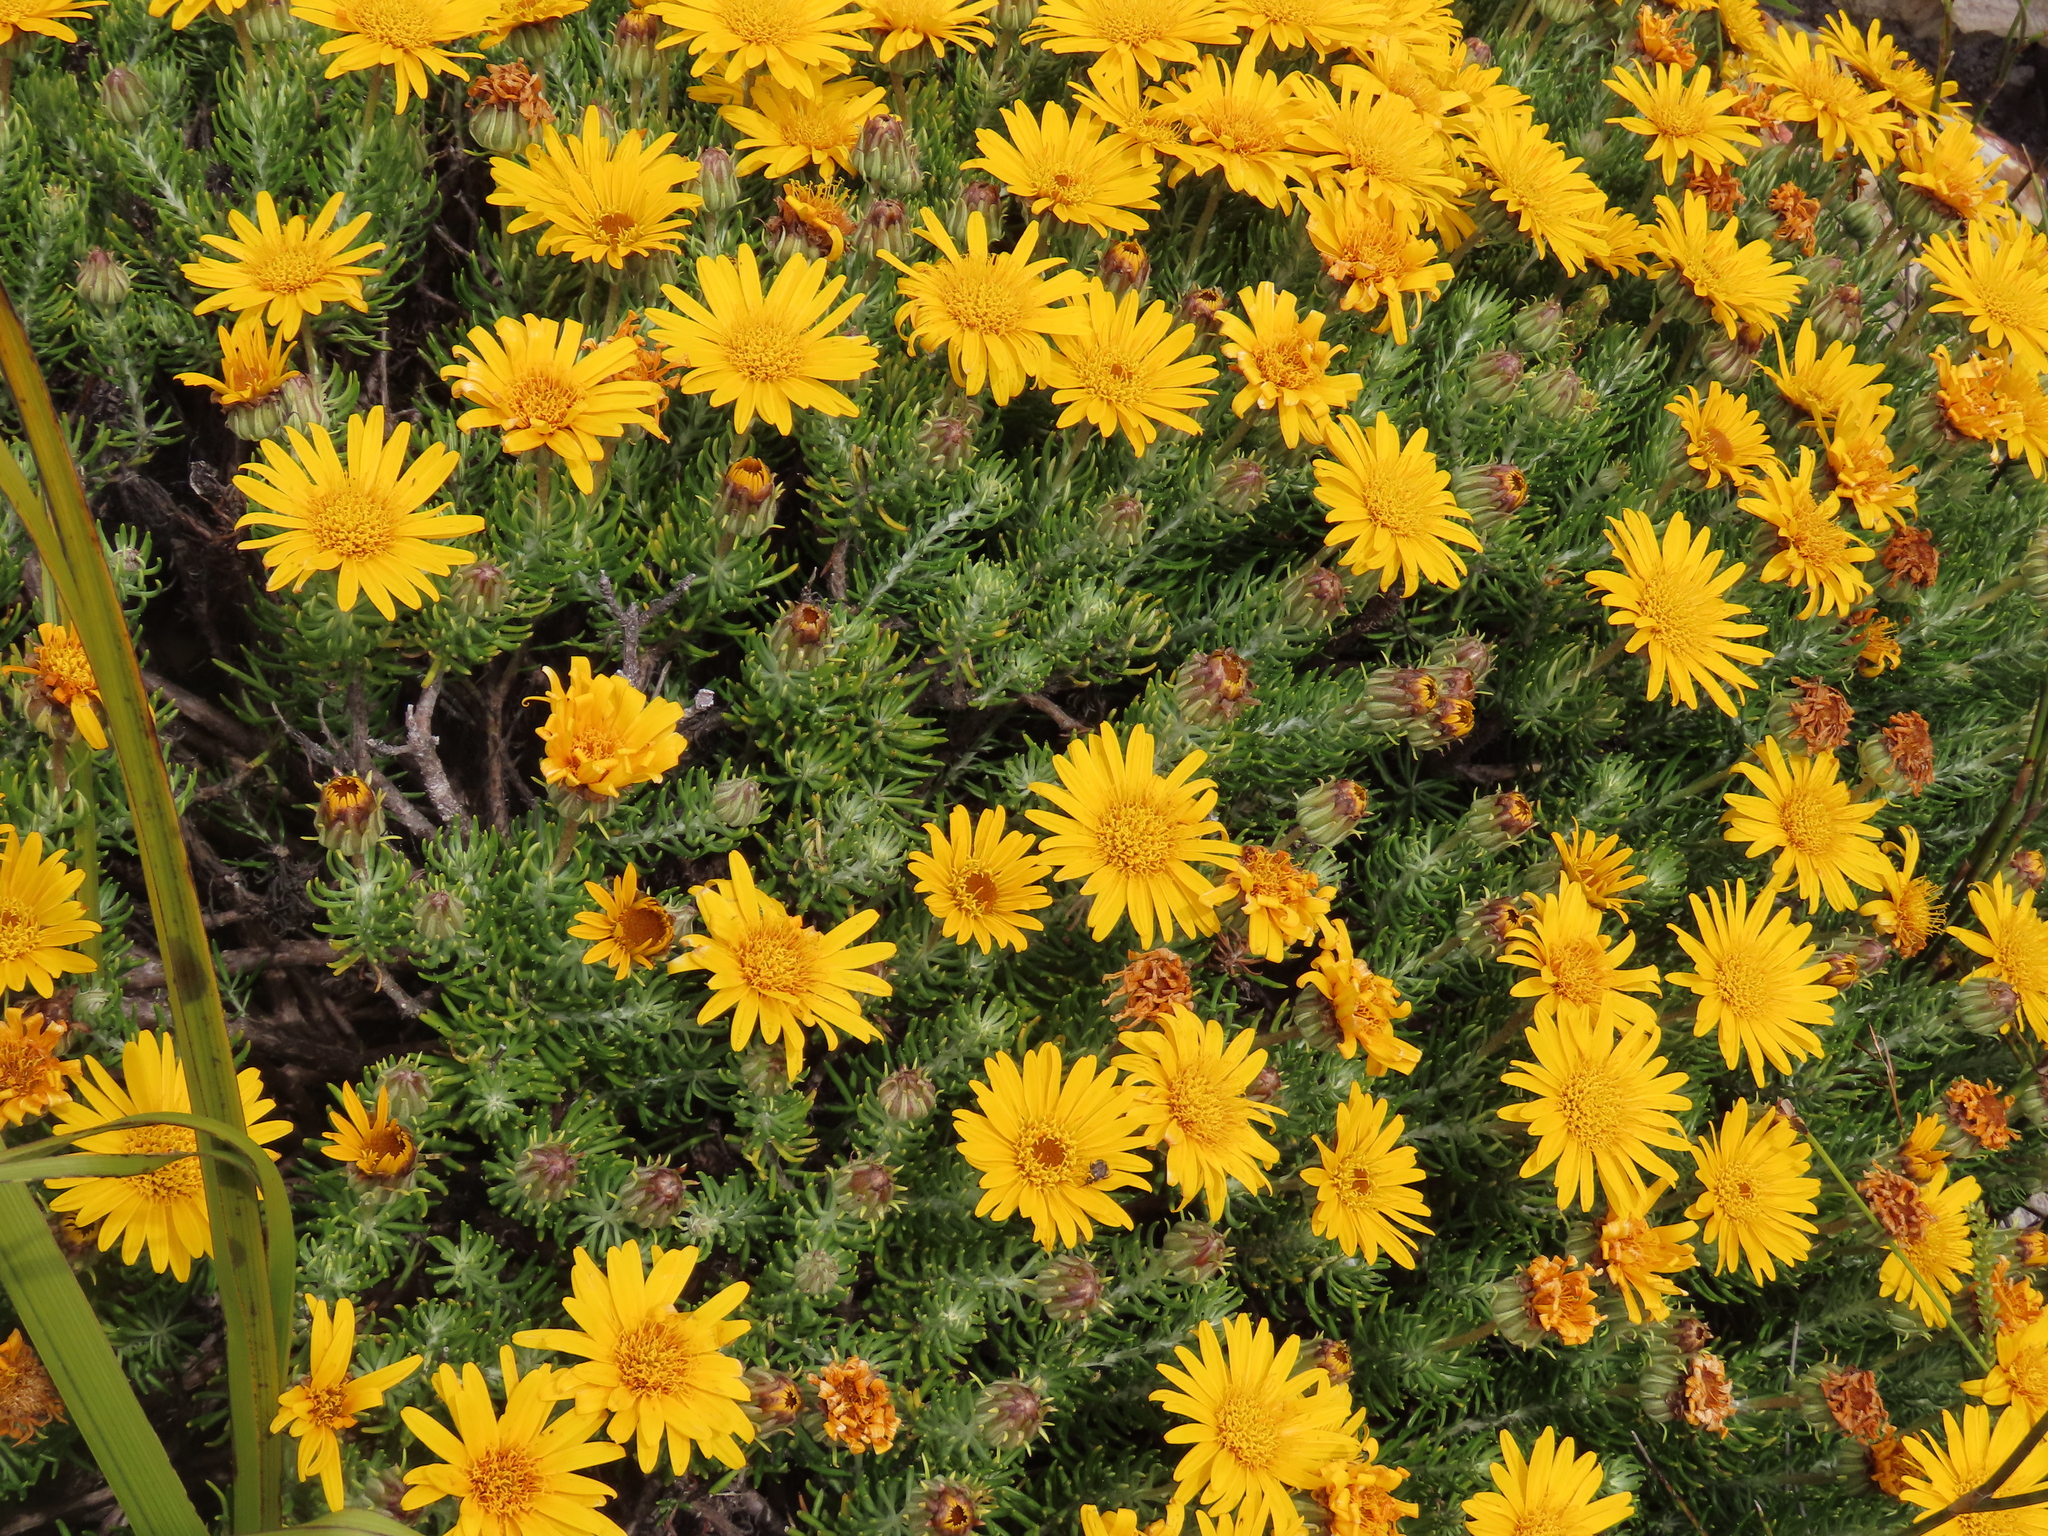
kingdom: Plantae
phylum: Tracheophyta
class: Magnoliopsida
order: Asterales
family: Asteraceae
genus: Heterolepis
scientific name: Heterolepis aliena
